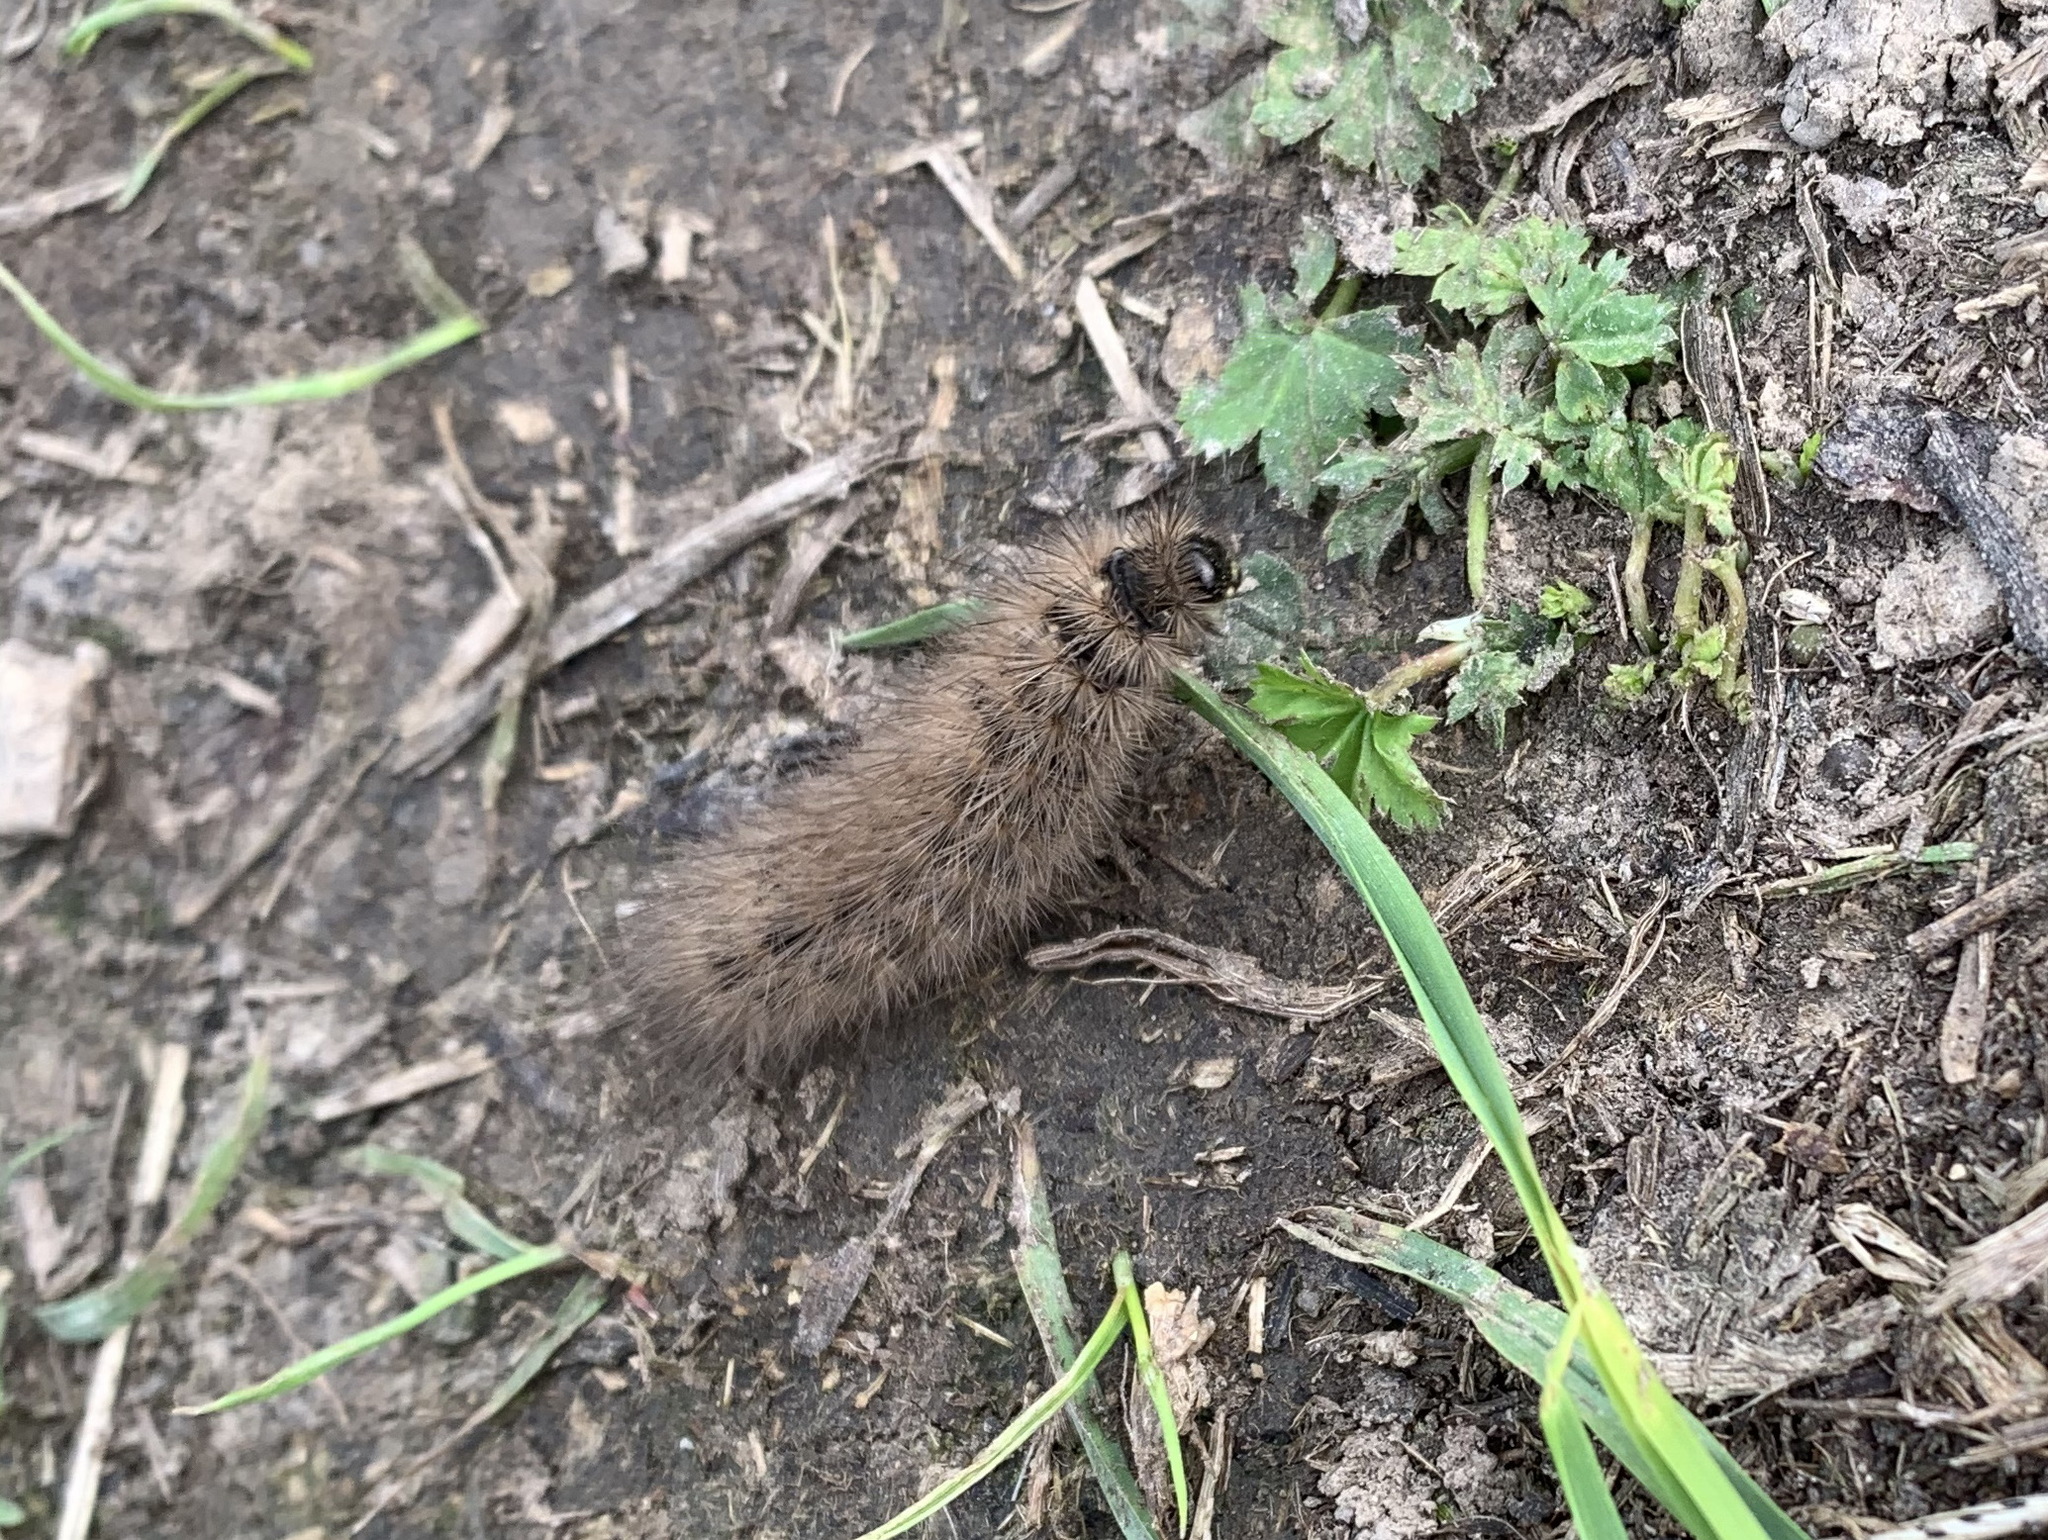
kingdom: Animalia
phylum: Arthropoda
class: Insecta
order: Lepidoptera
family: Erebidae
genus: Phragmatobia
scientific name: Phragmatobia fuliginosa
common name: Ruby tiger
